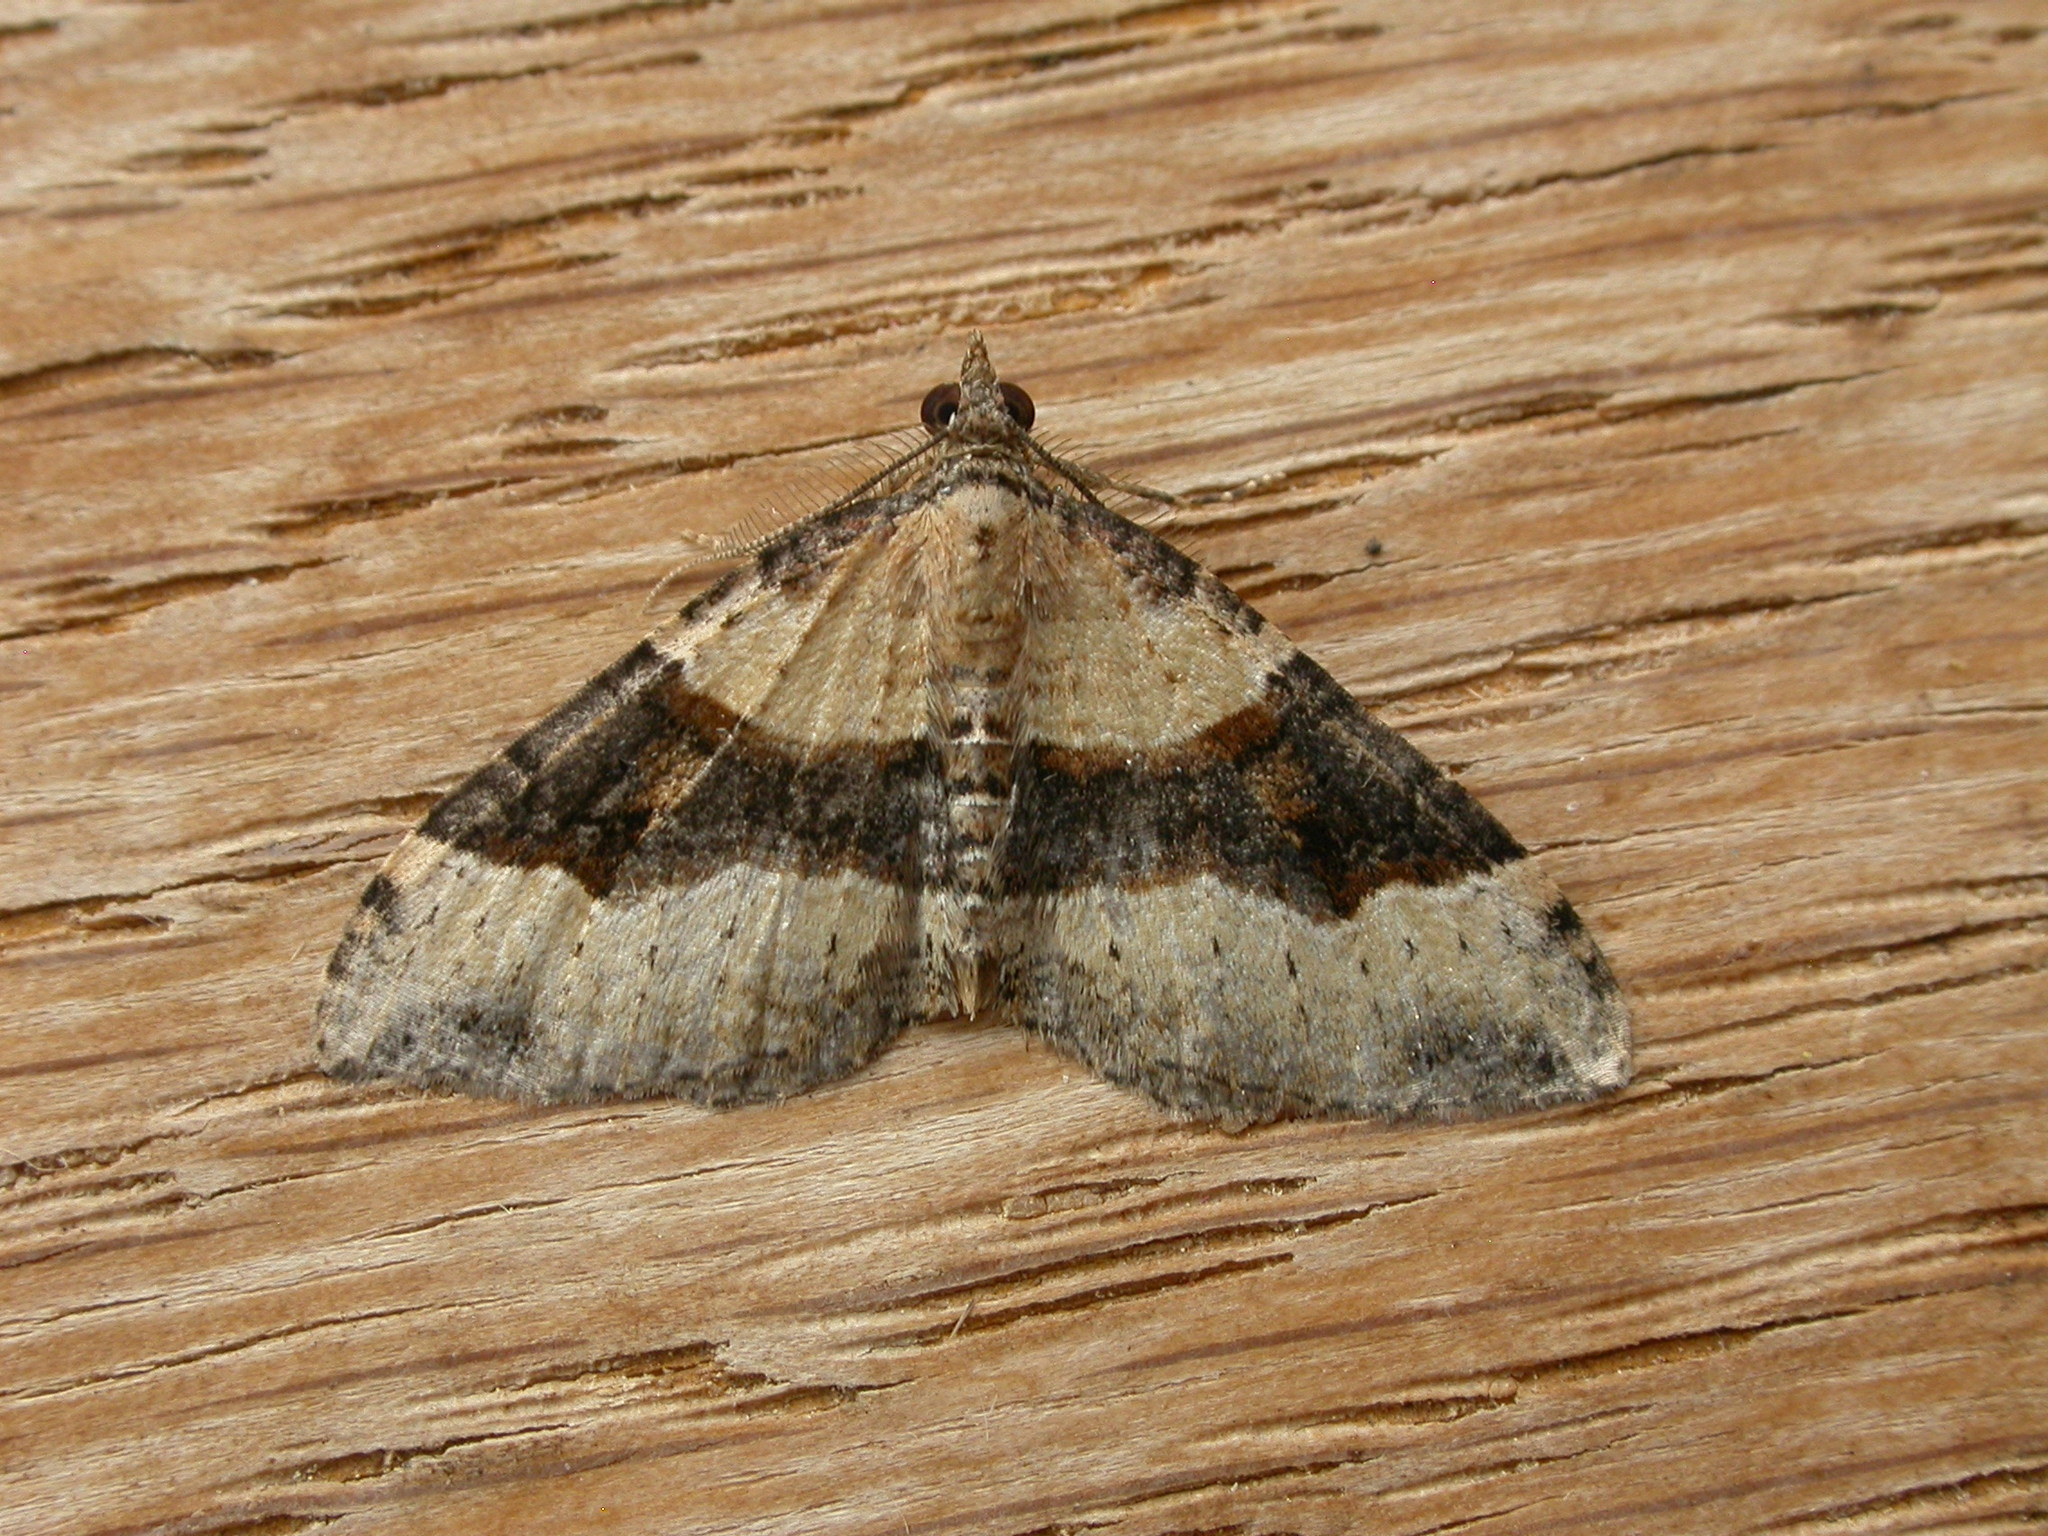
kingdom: Animalia
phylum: Arthropoda
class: Insecta
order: Lepidoptera
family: Geometridae
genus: Epyaxa
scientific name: Epyaxa subidaria
